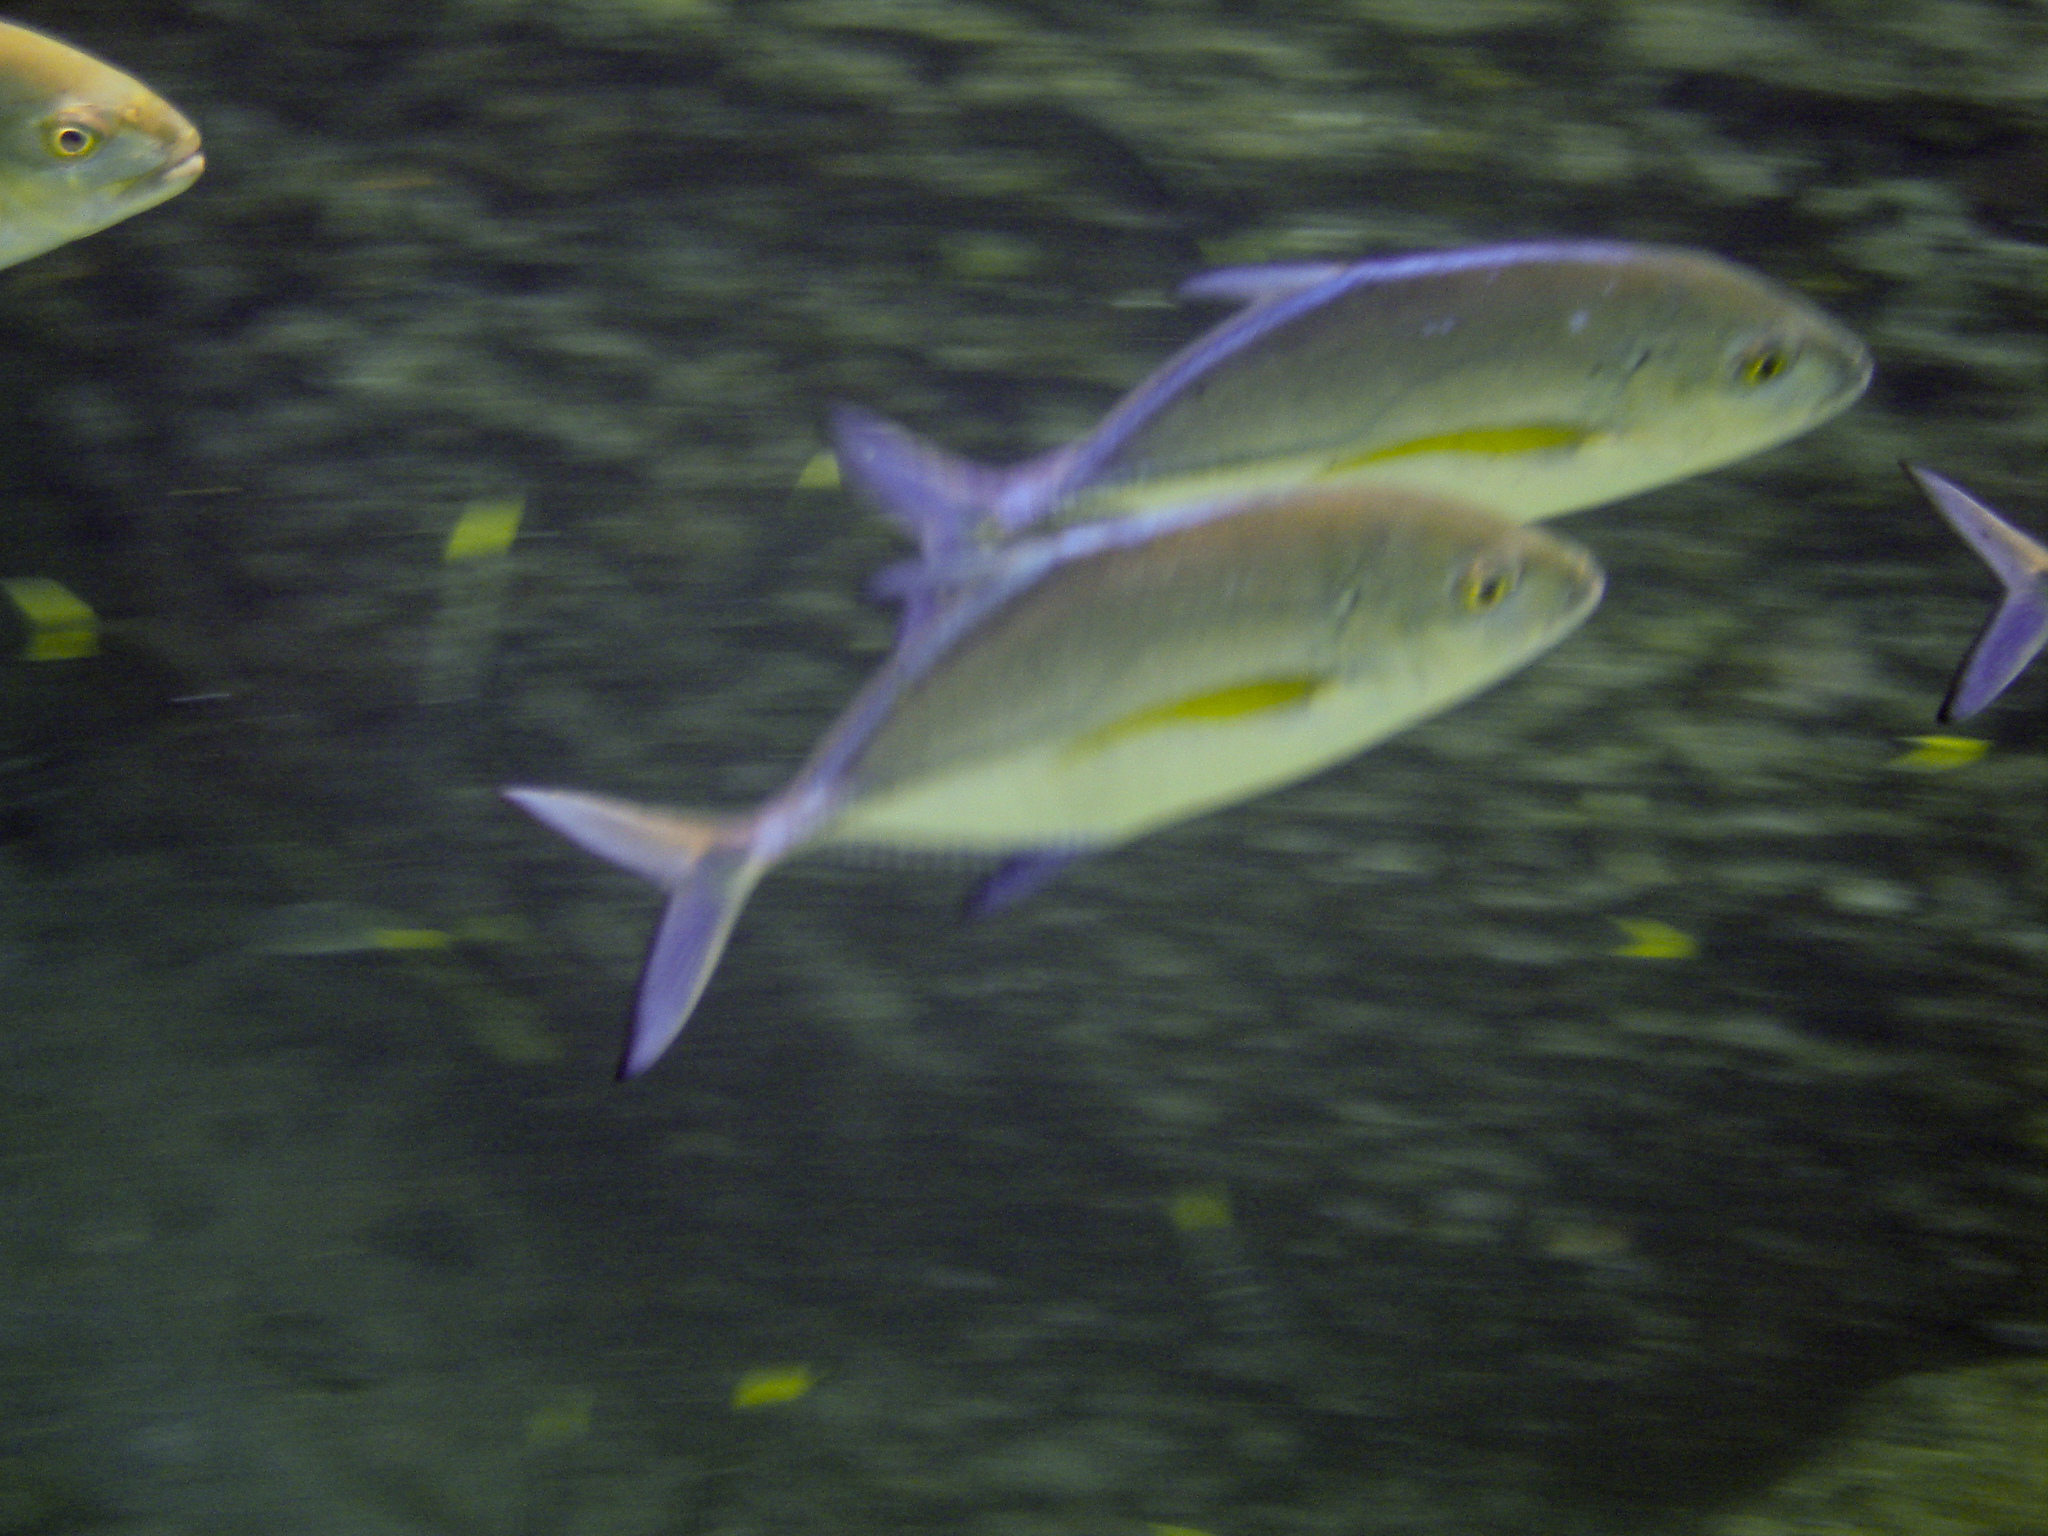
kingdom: Animalia
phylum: Chordata
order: Perciformes
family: Carangidae
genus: Caranx
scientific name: Caranx melampygus
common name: Bluefin trevally
